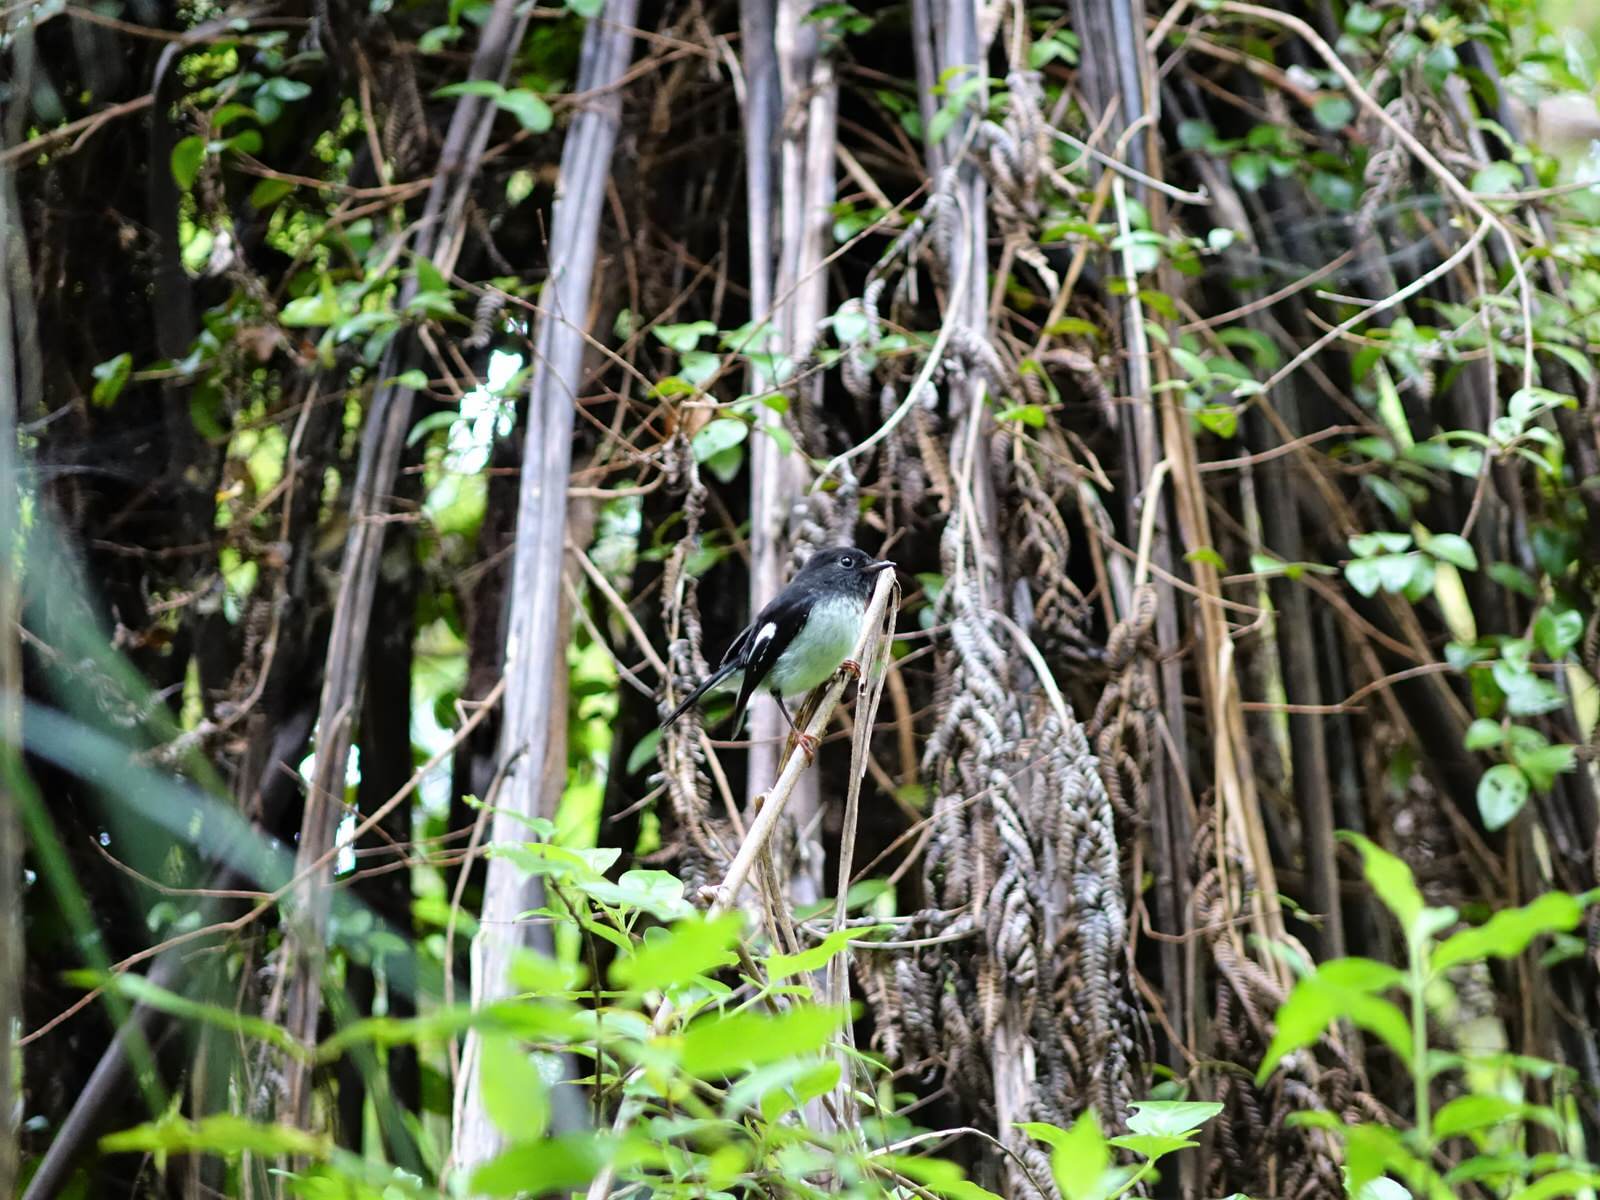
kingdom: Animalia
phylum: Chordata
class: Aves
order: Passeriformes
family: Petroicidae
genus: Petroica
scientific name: Petroica macrocephala
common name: Tomtit
